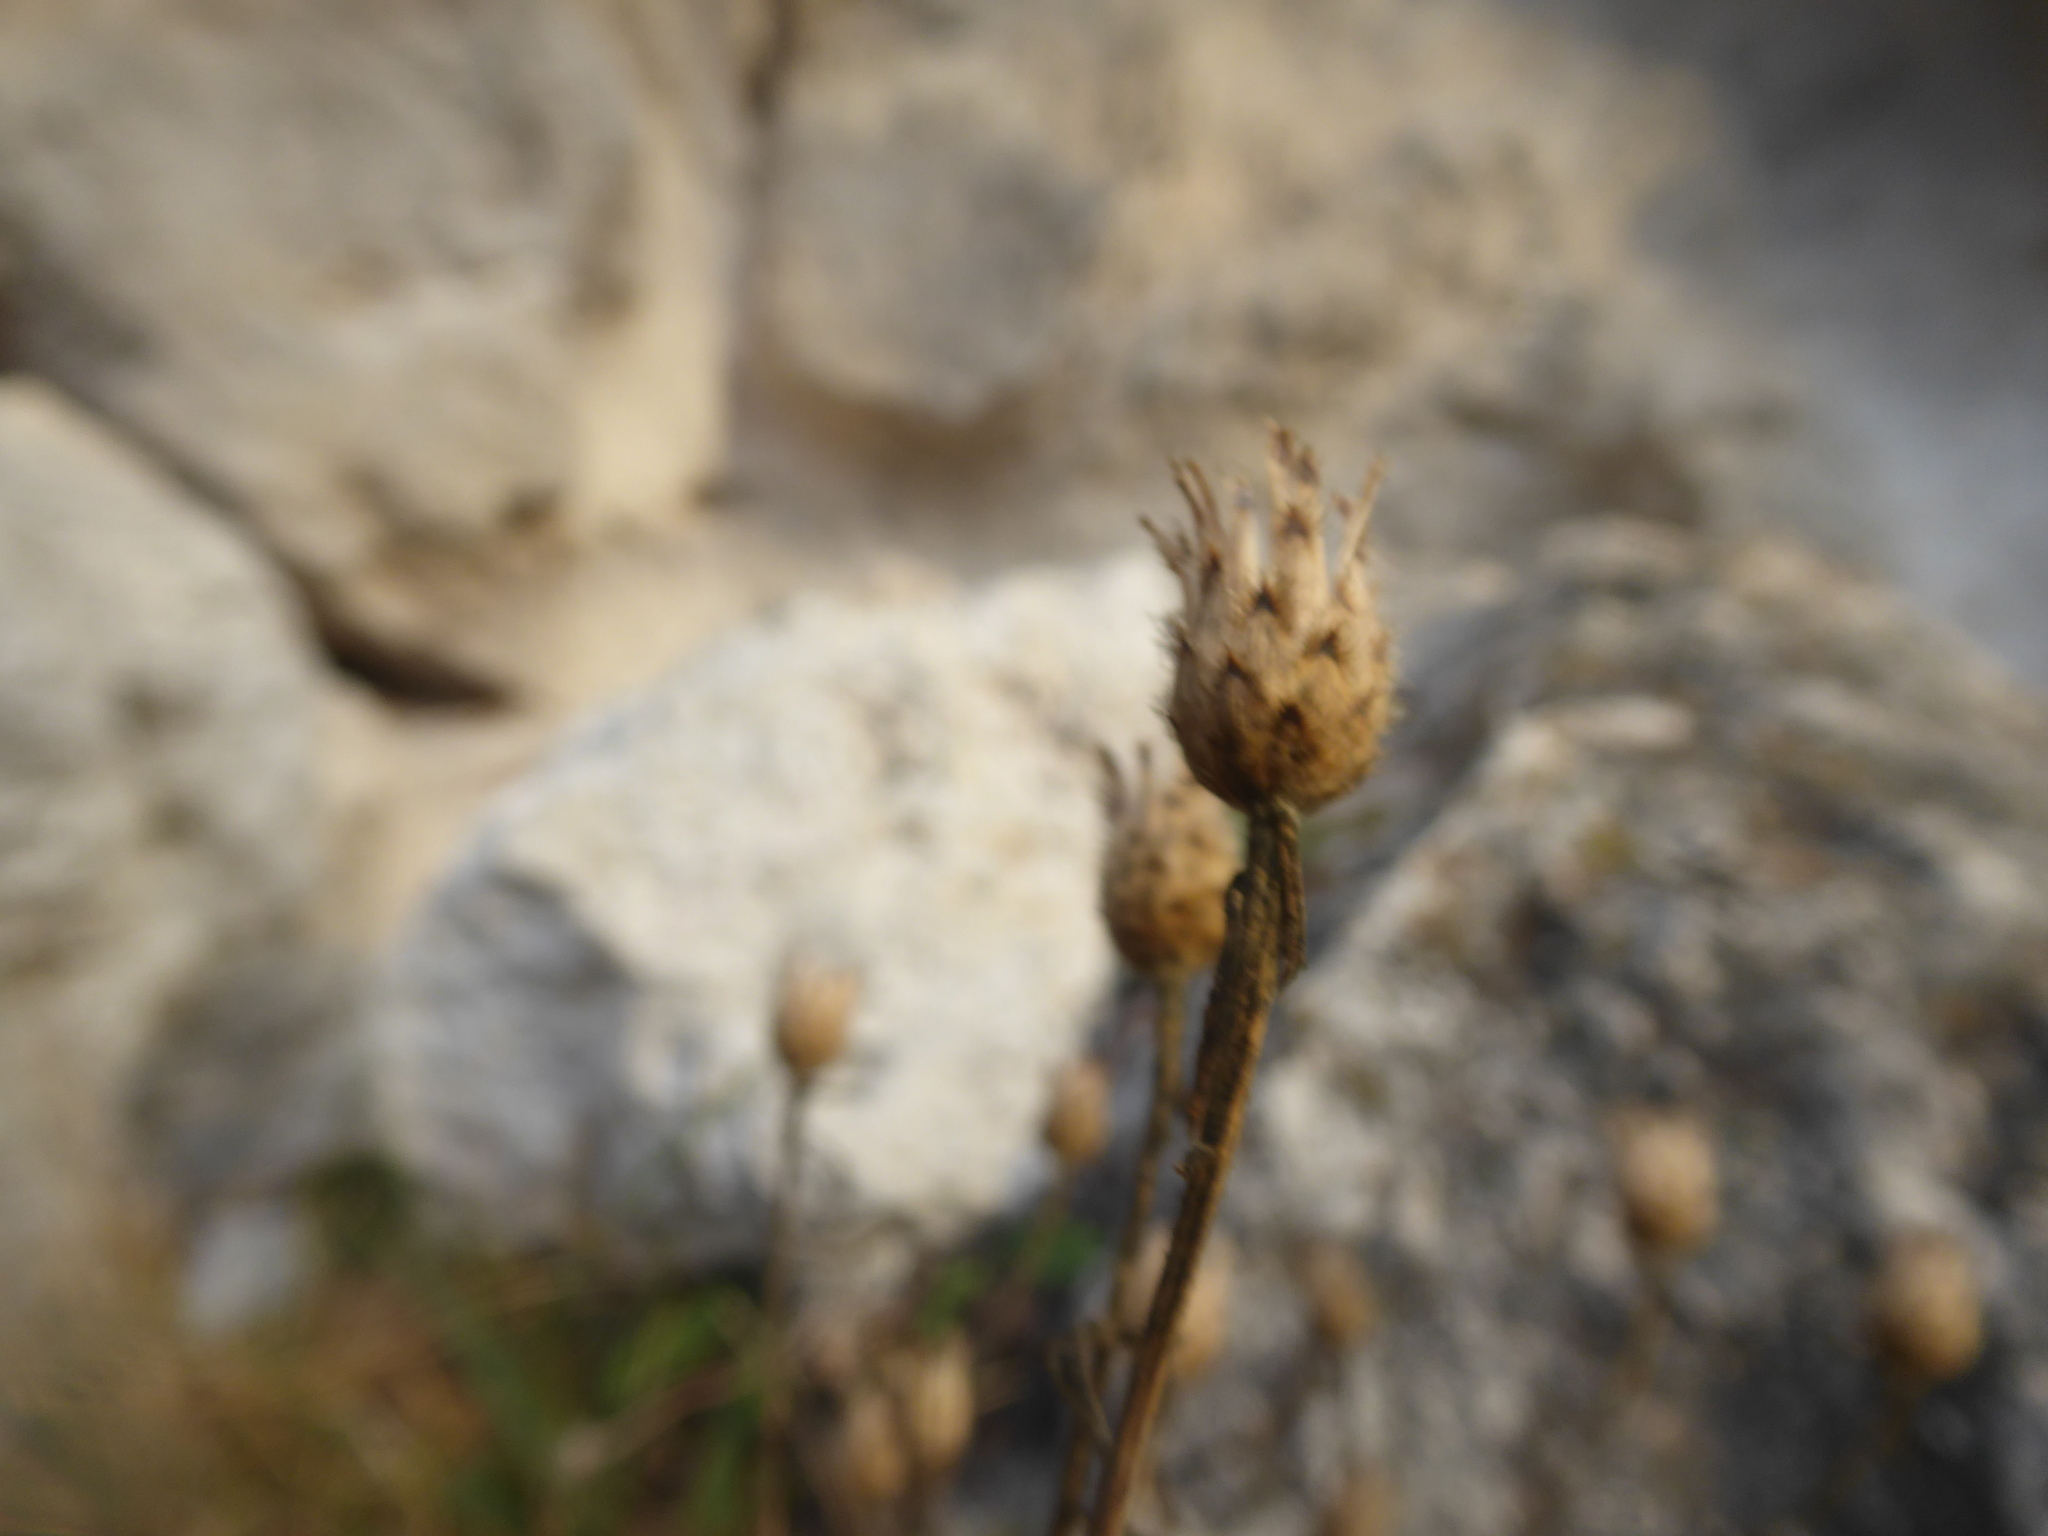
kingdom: Plantae
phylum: Tracheophyta
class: Magnoliopsida
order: Asterales
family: Asteraceae
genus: Centaurea
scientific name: Centaurea stoebe
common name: Spotted knapweed
